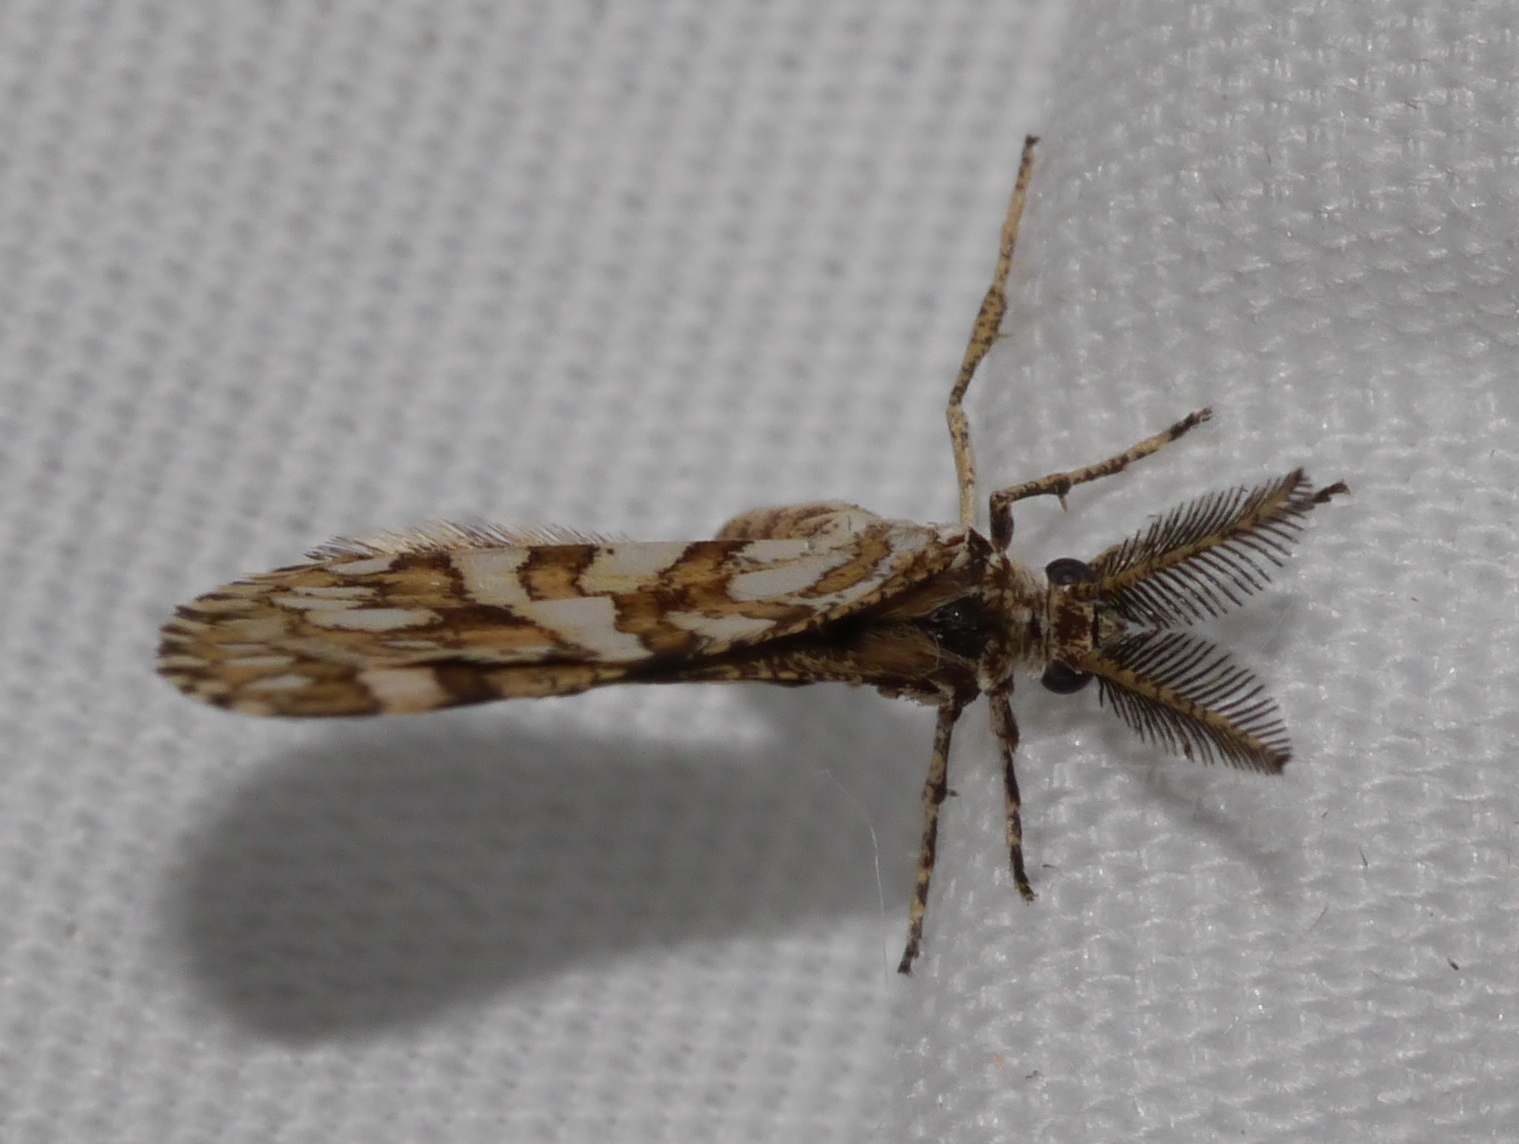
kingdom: Animalia
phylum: Arthropoda
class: Insecta
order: Lepidoptera
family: Geometridae
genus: Narraga
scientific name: Narraga fimetaria
